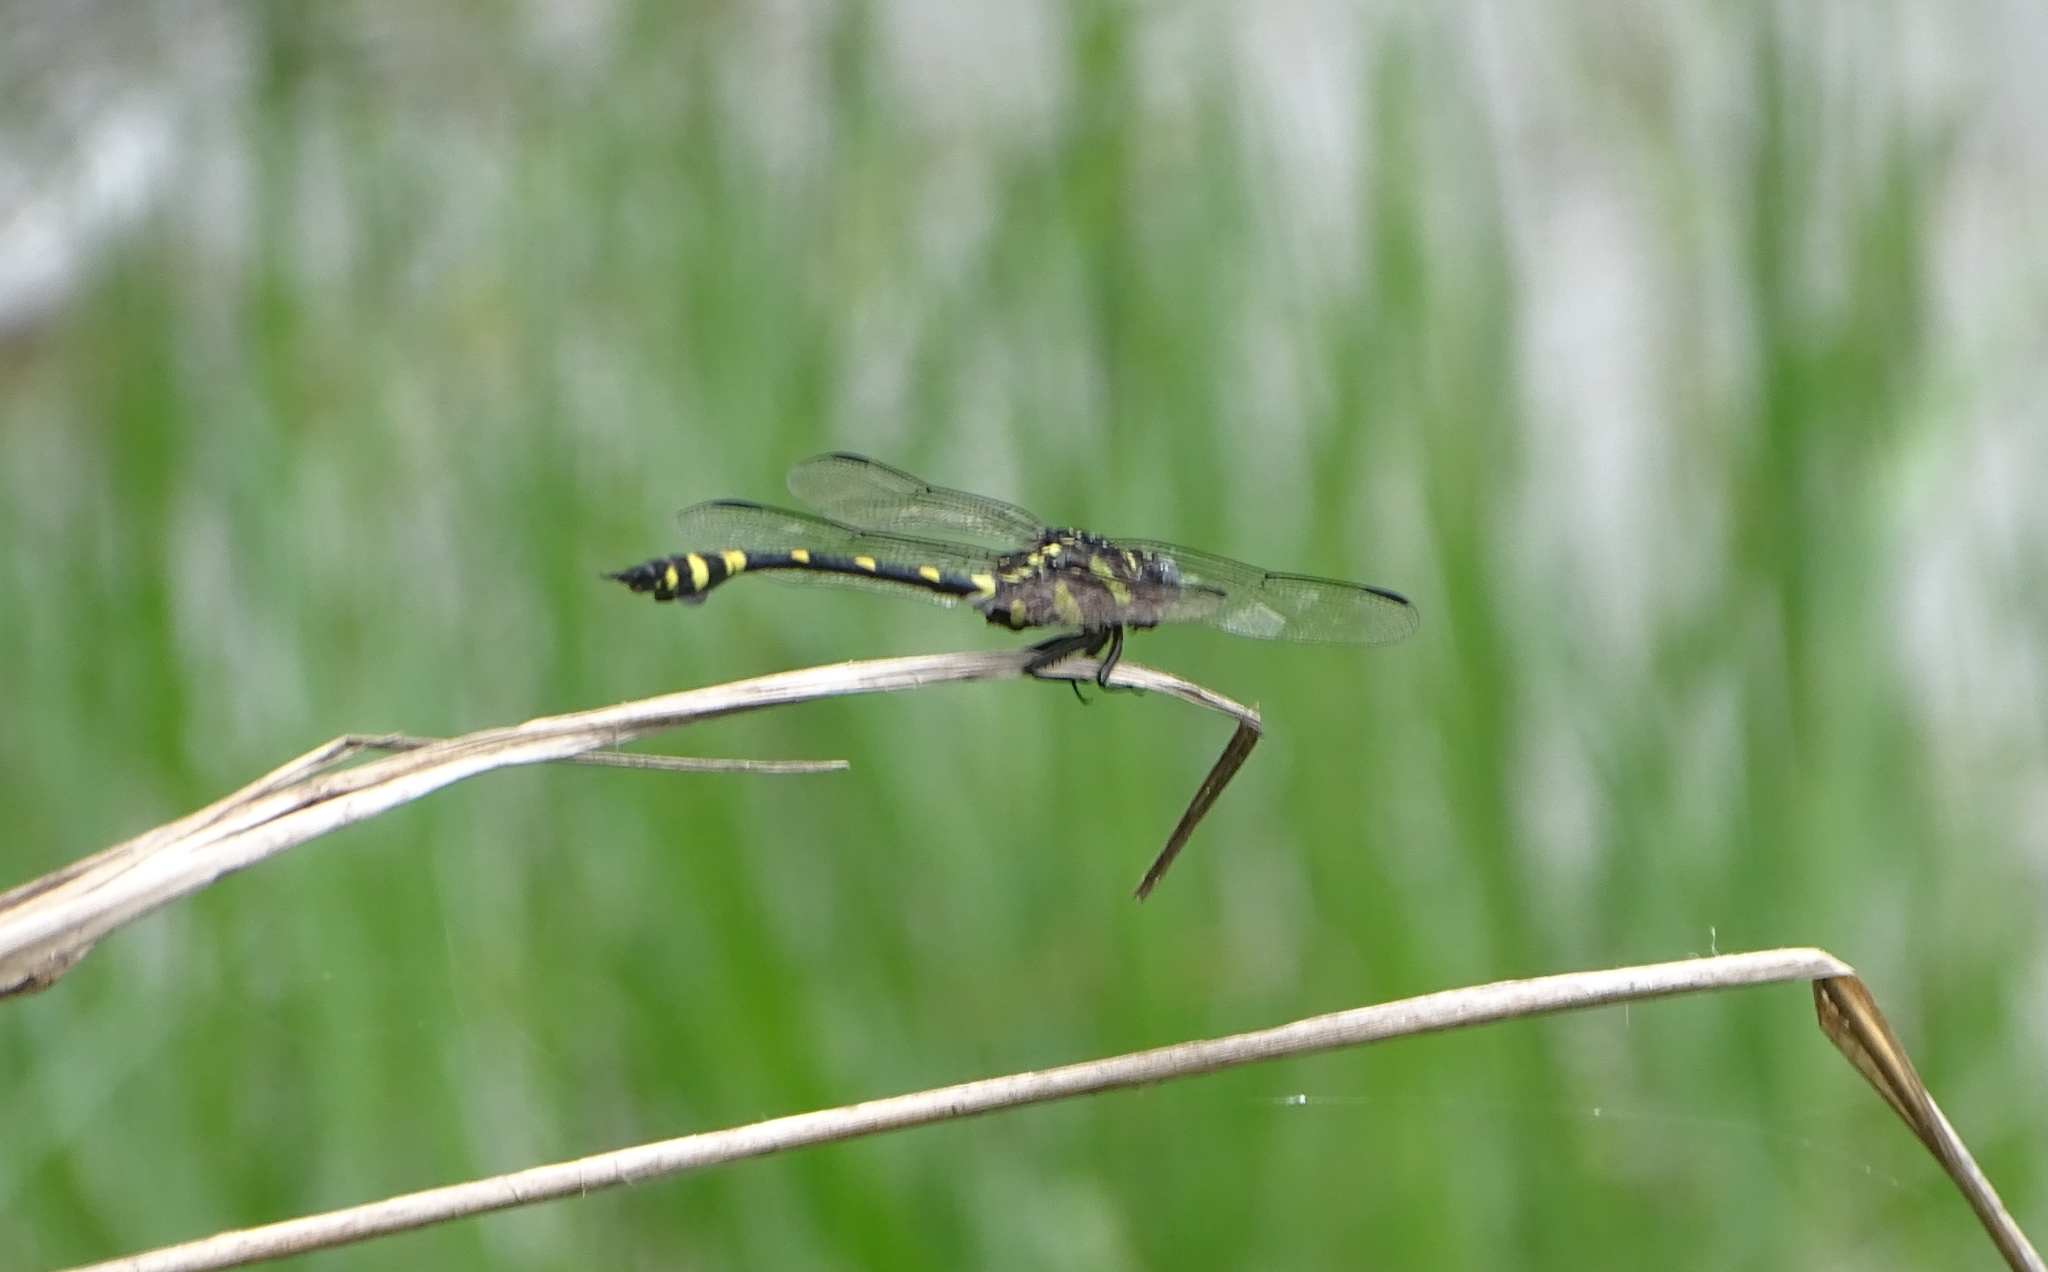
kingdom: Animalia
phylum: Arthropoda
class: Insecta
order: Odonata
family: Gomphidae
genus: Ictinogomphus
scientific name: Ictinogomphus rapax
